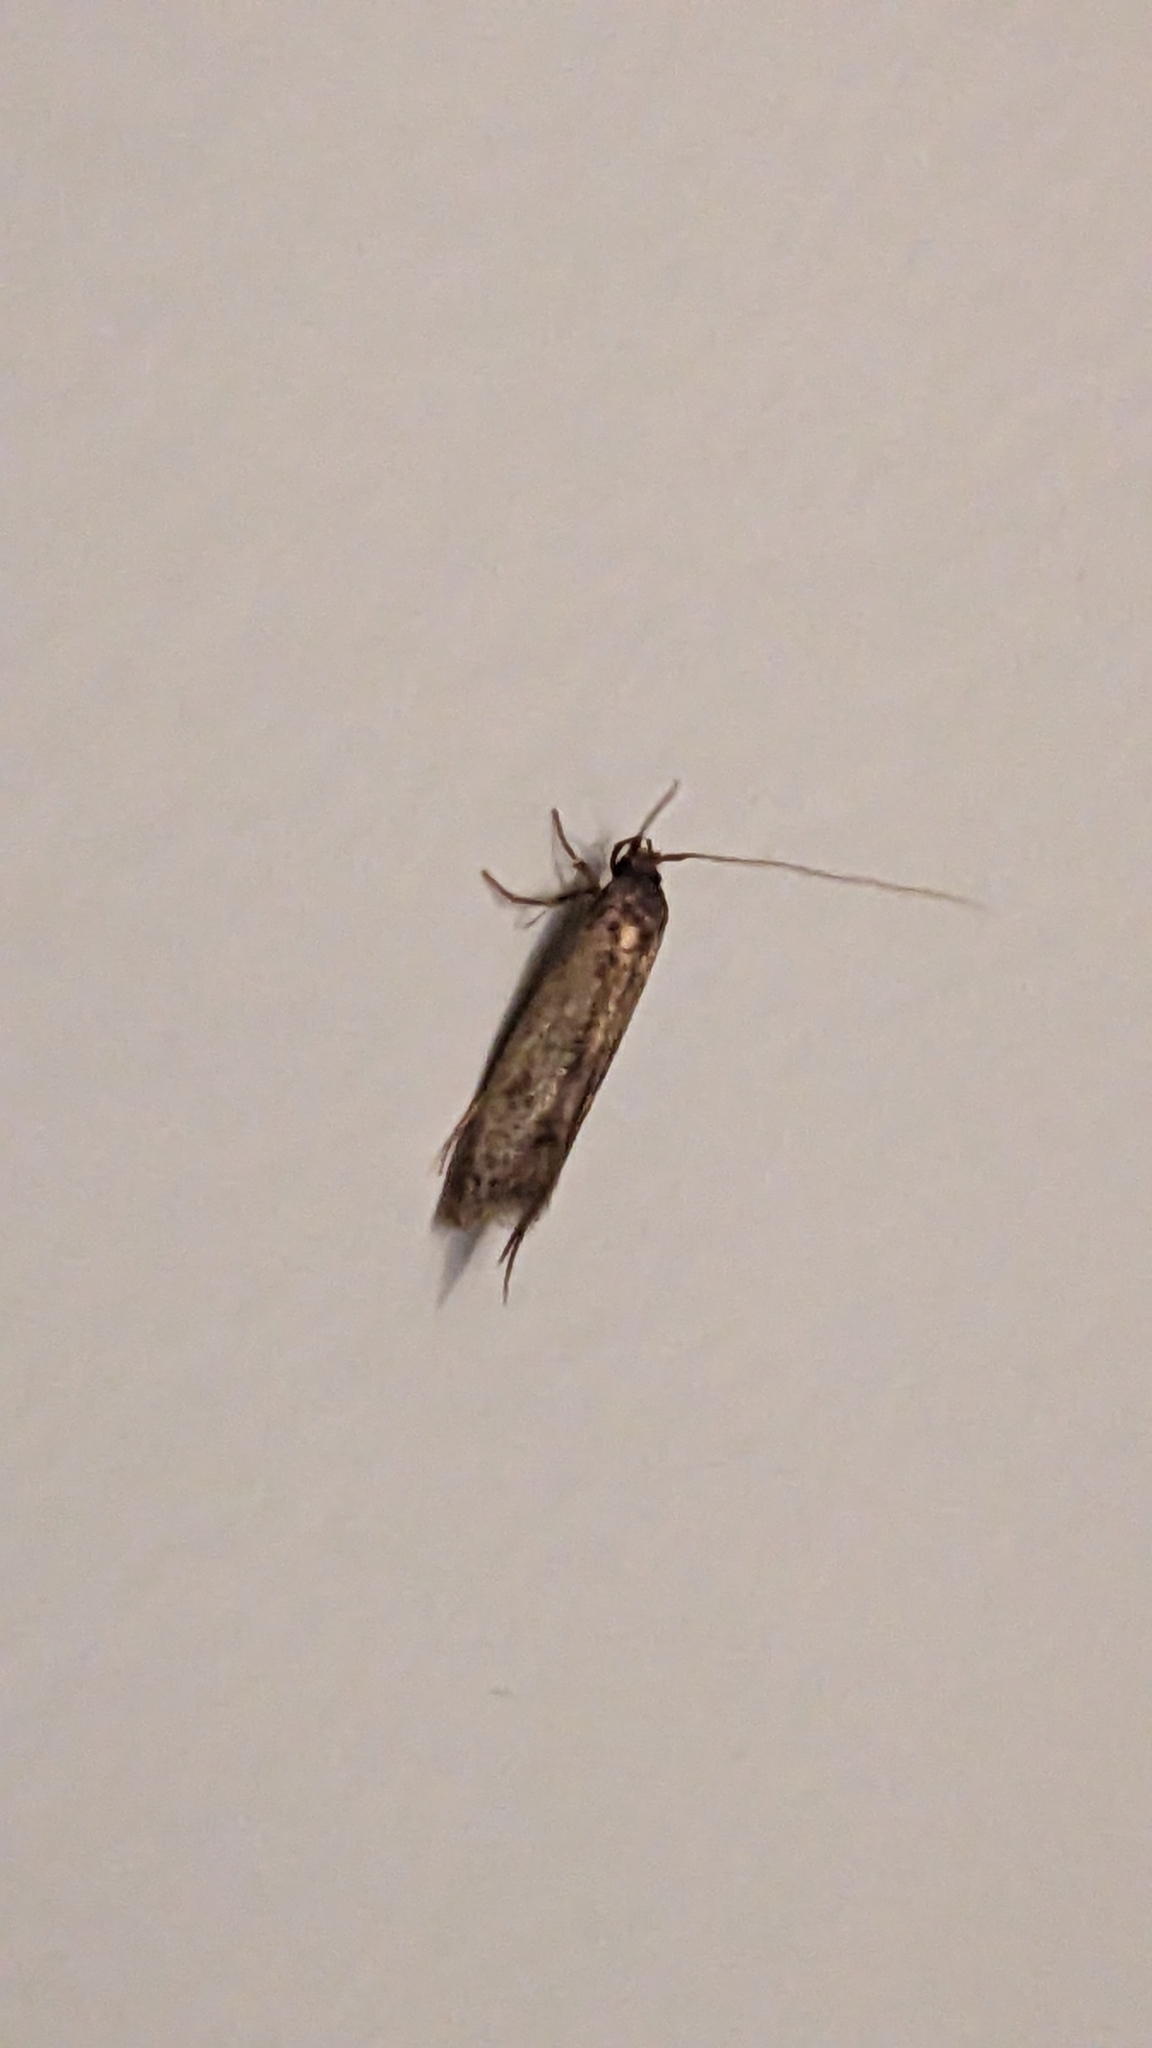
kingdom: Animalia
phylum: Arthropoda
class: Insecta
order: Lepidoptera
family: Tineidae
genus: Opogona
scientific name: Opogona omoscopa
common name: Moth
